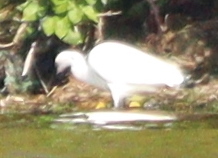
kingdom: Animalia
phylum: Chordata
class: Aves
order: Pelecaniformes
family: Ardeidae
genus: Egretta
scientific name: Egretta garzetta
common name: Little egret
